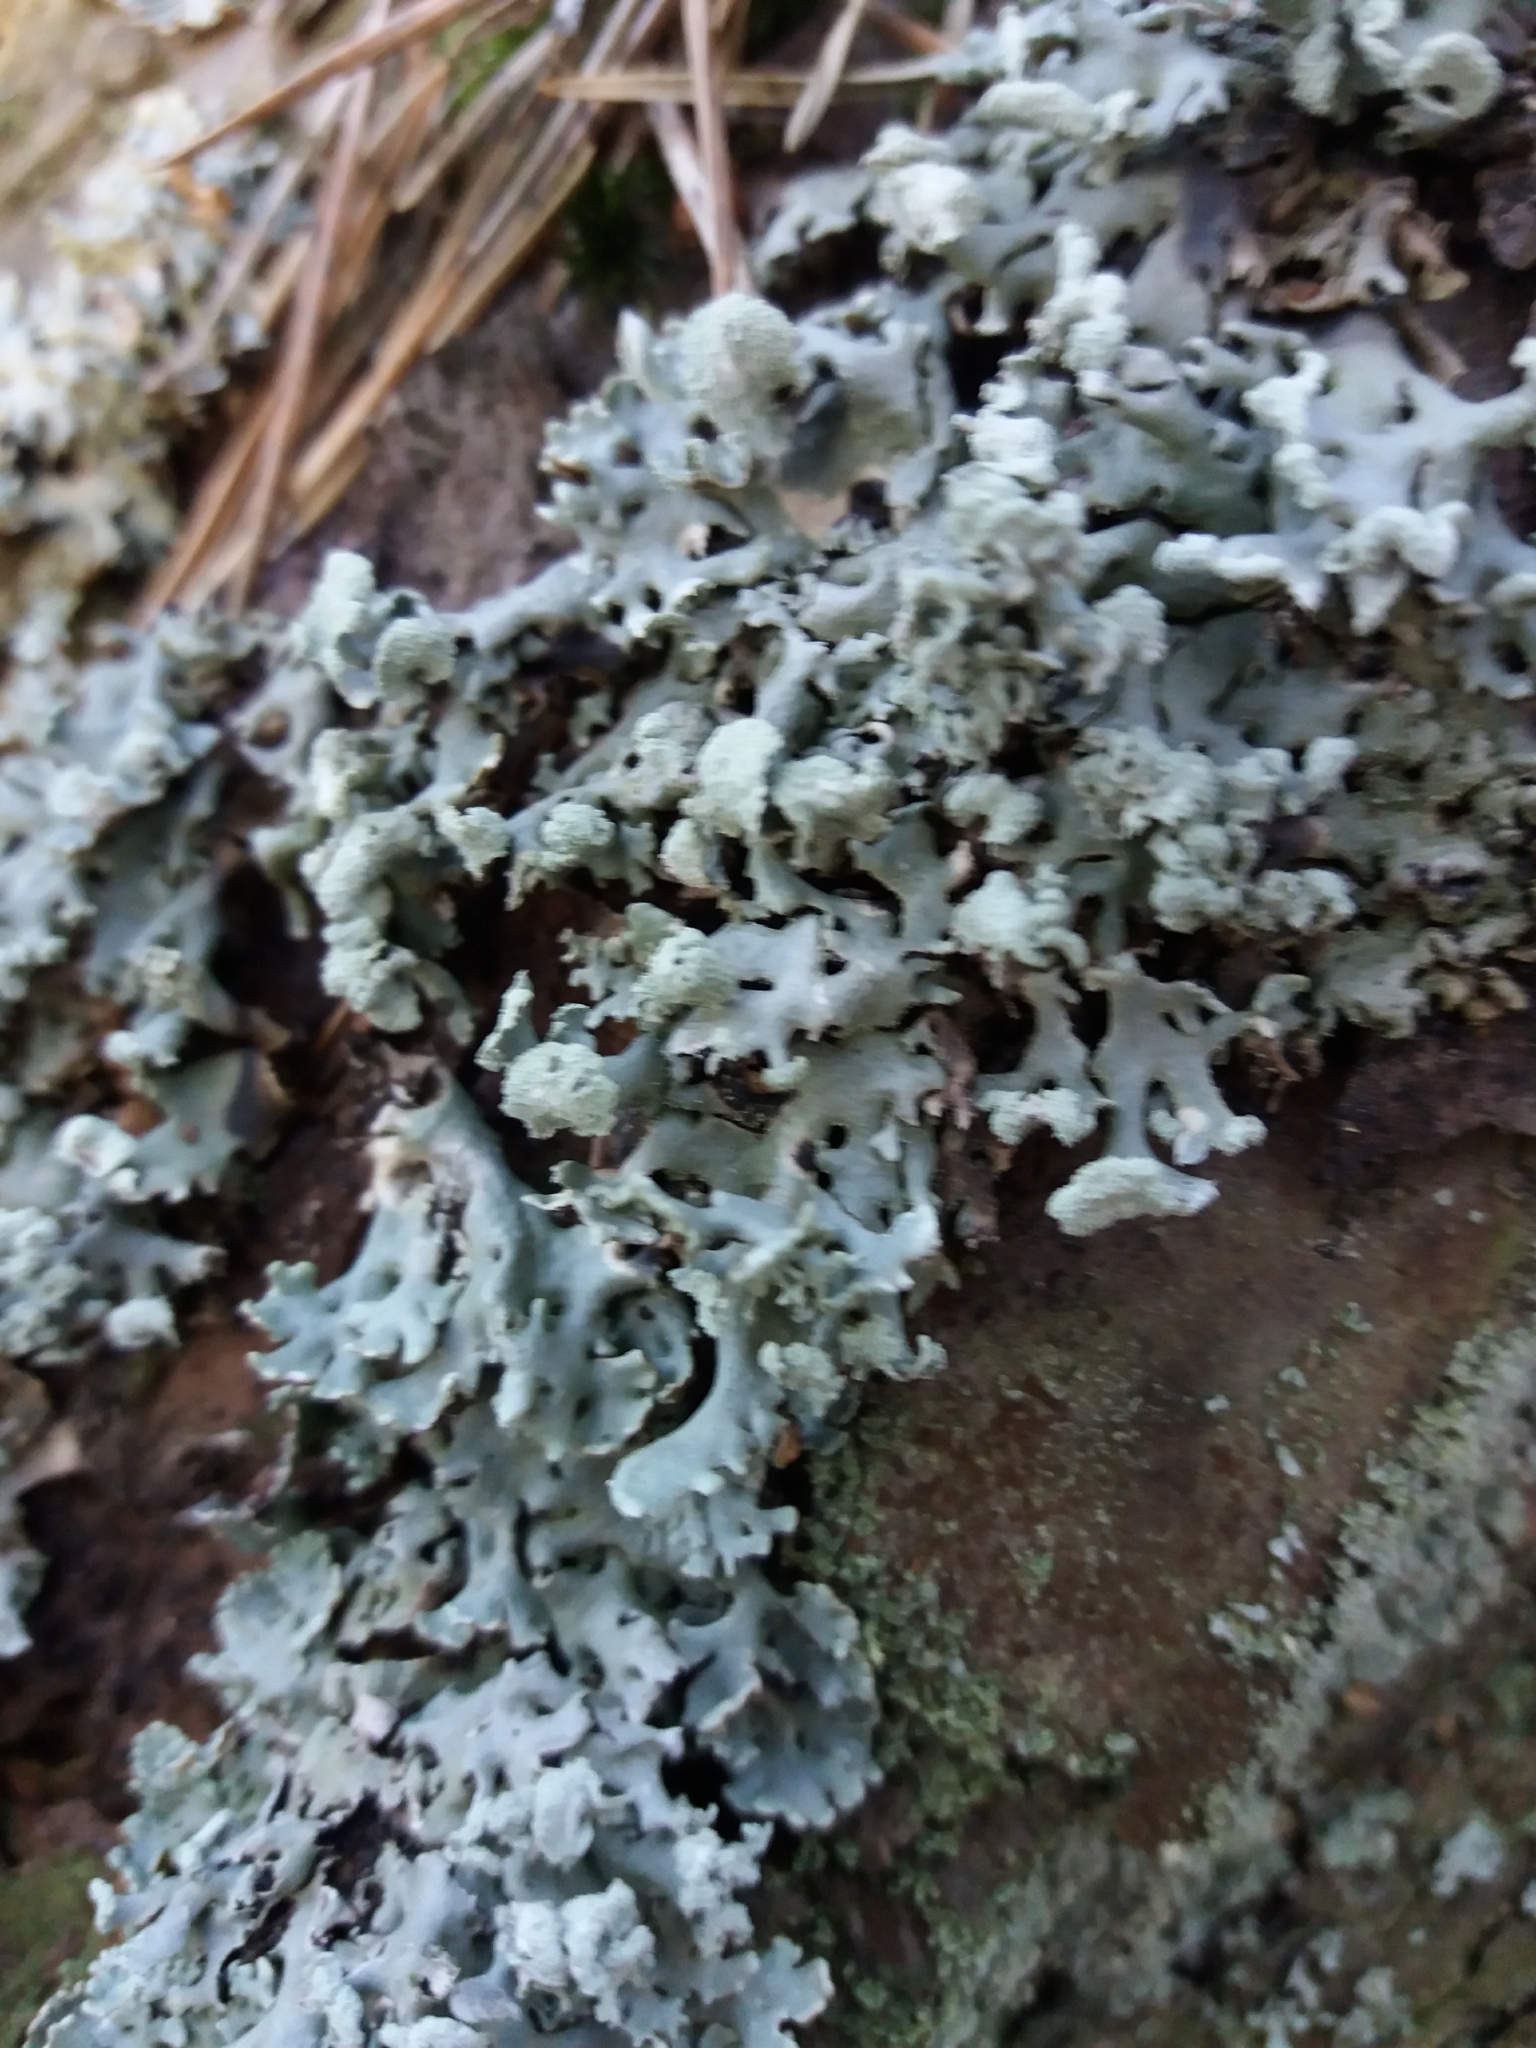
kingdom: Fungi
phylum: Ascomycota
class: Lecanoromycetes
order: Lecanorales
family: Parmeliaceae
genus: Hypogymnia
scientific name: Hypogymnia physodes
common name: Dark crottle
